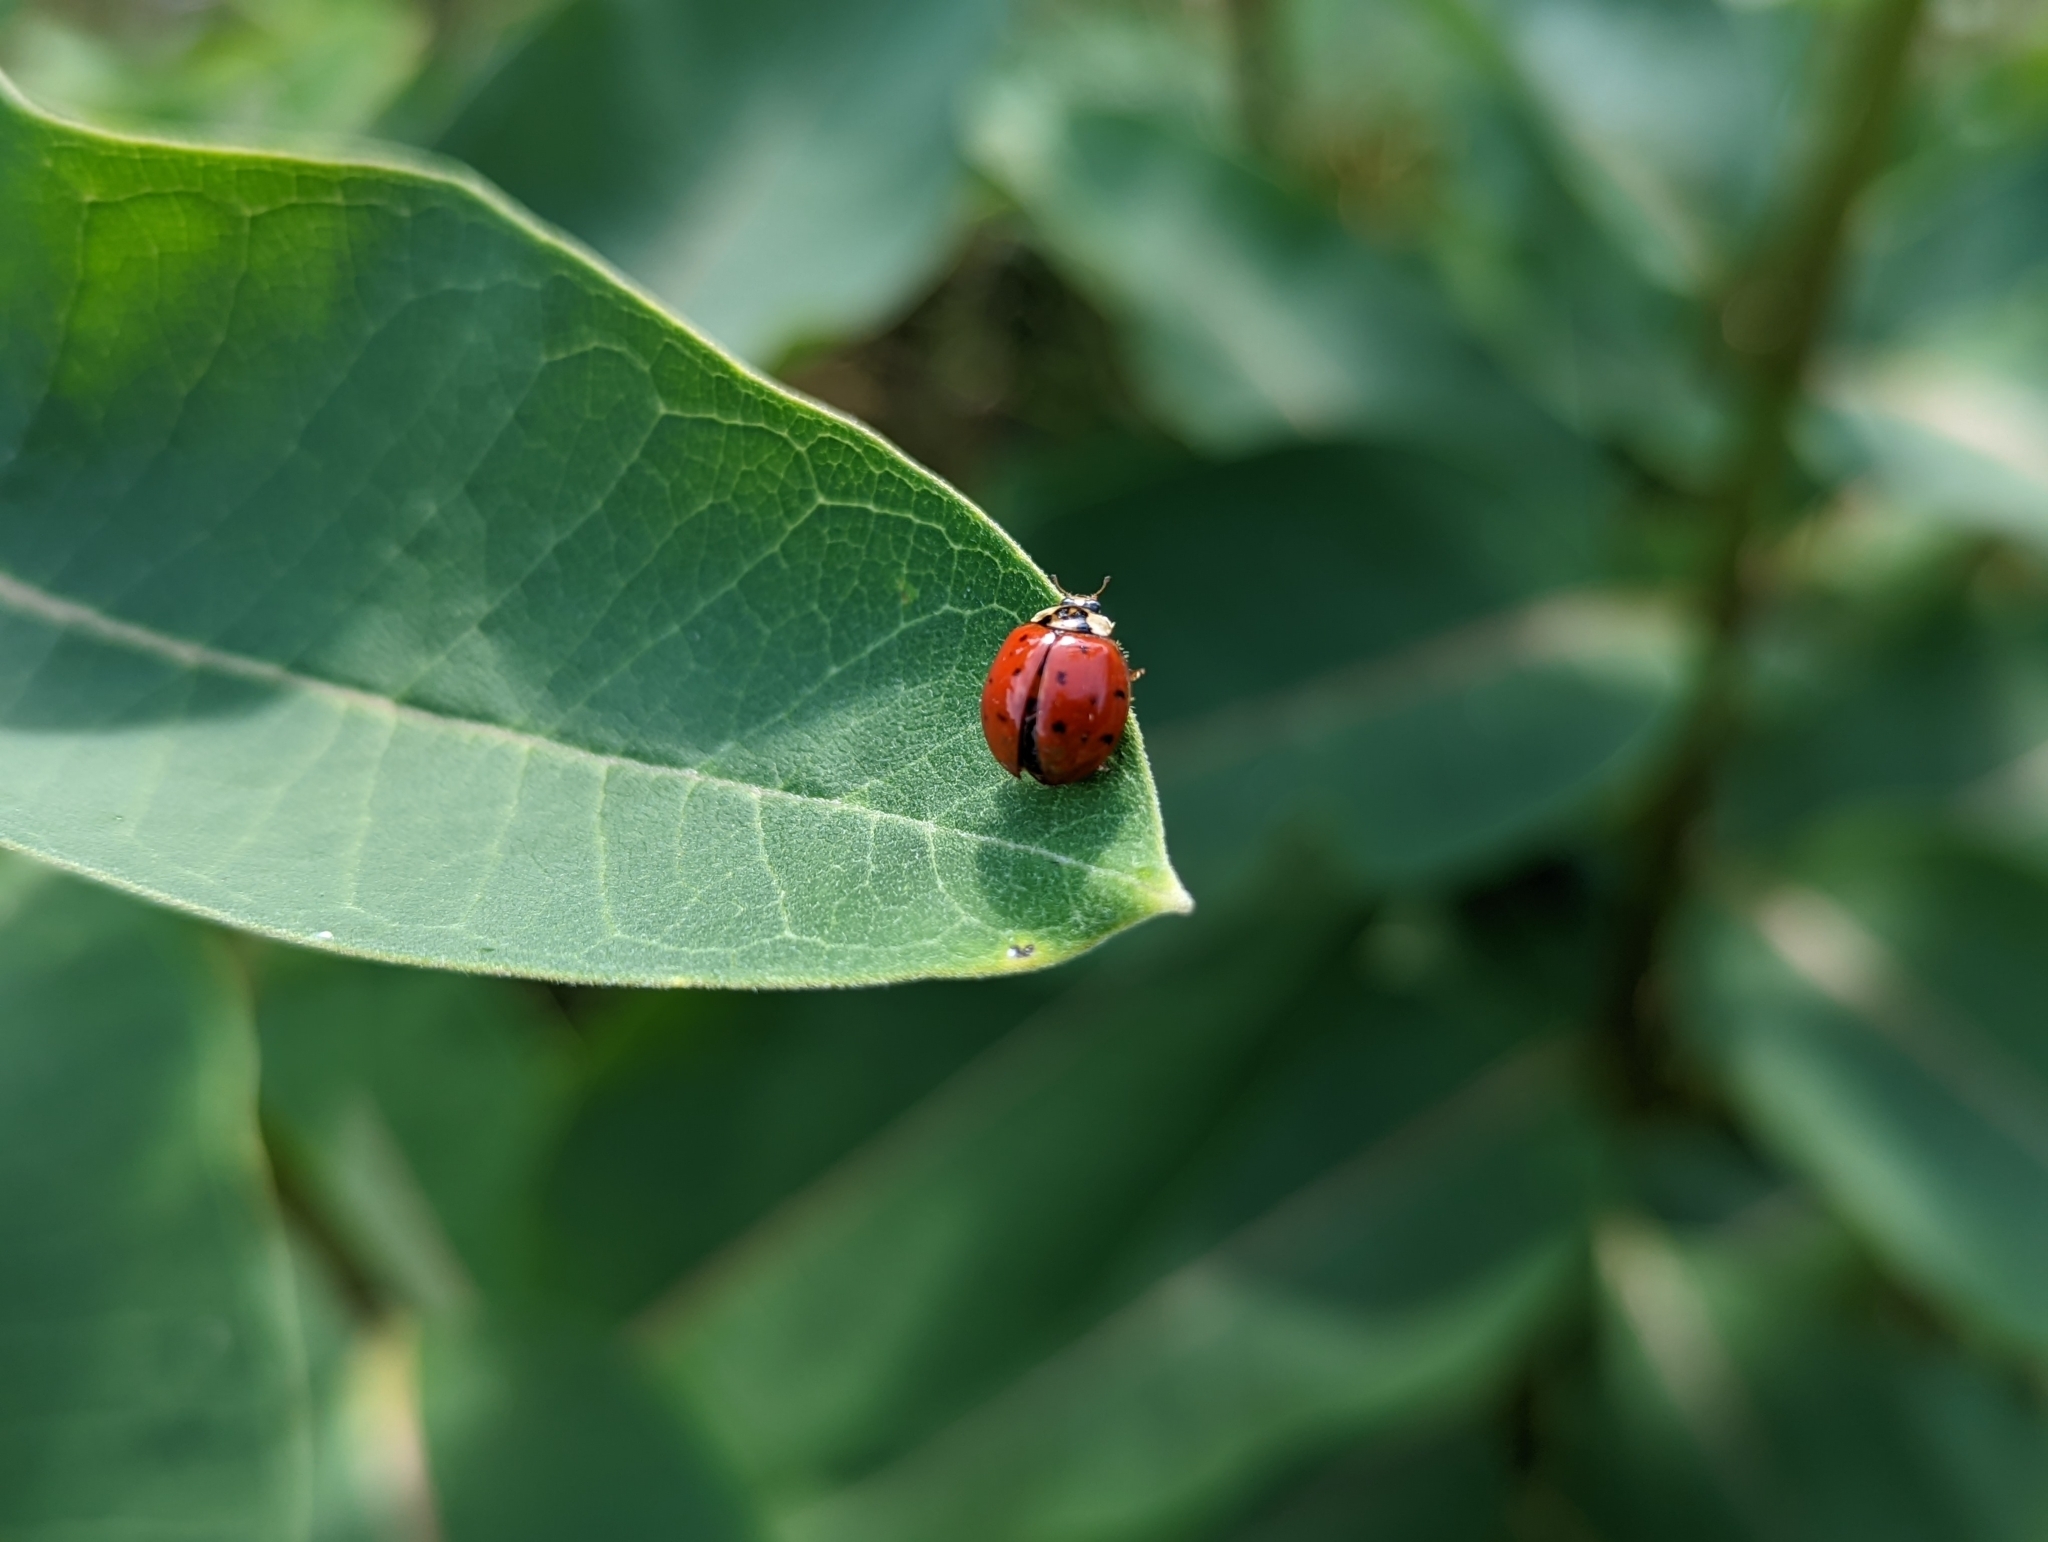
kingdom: Animalia
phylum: Arthropoda
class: Insecta
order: Coleoptera
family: Coccinellidae
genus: Harmonia
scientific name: Harmonia axyridis
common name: Harlequin ladybird
